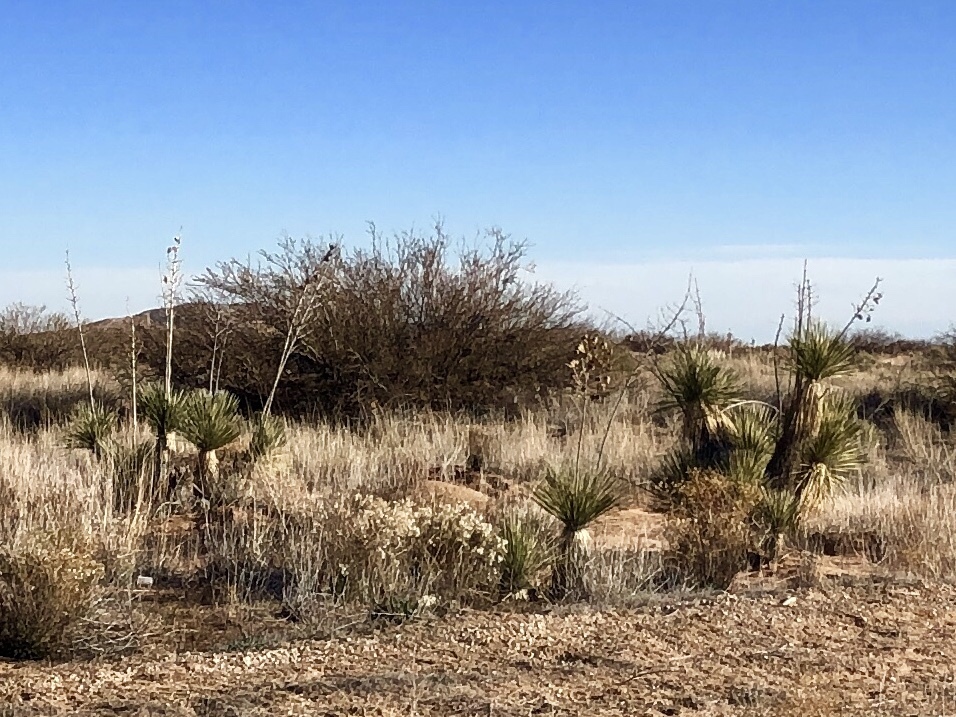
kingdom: Plantae
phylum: Tracheophyta
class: Liliopsida
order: Asparagales
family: Asparagaceae
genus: Yucca
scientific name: Yucca elata
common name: Palmella
